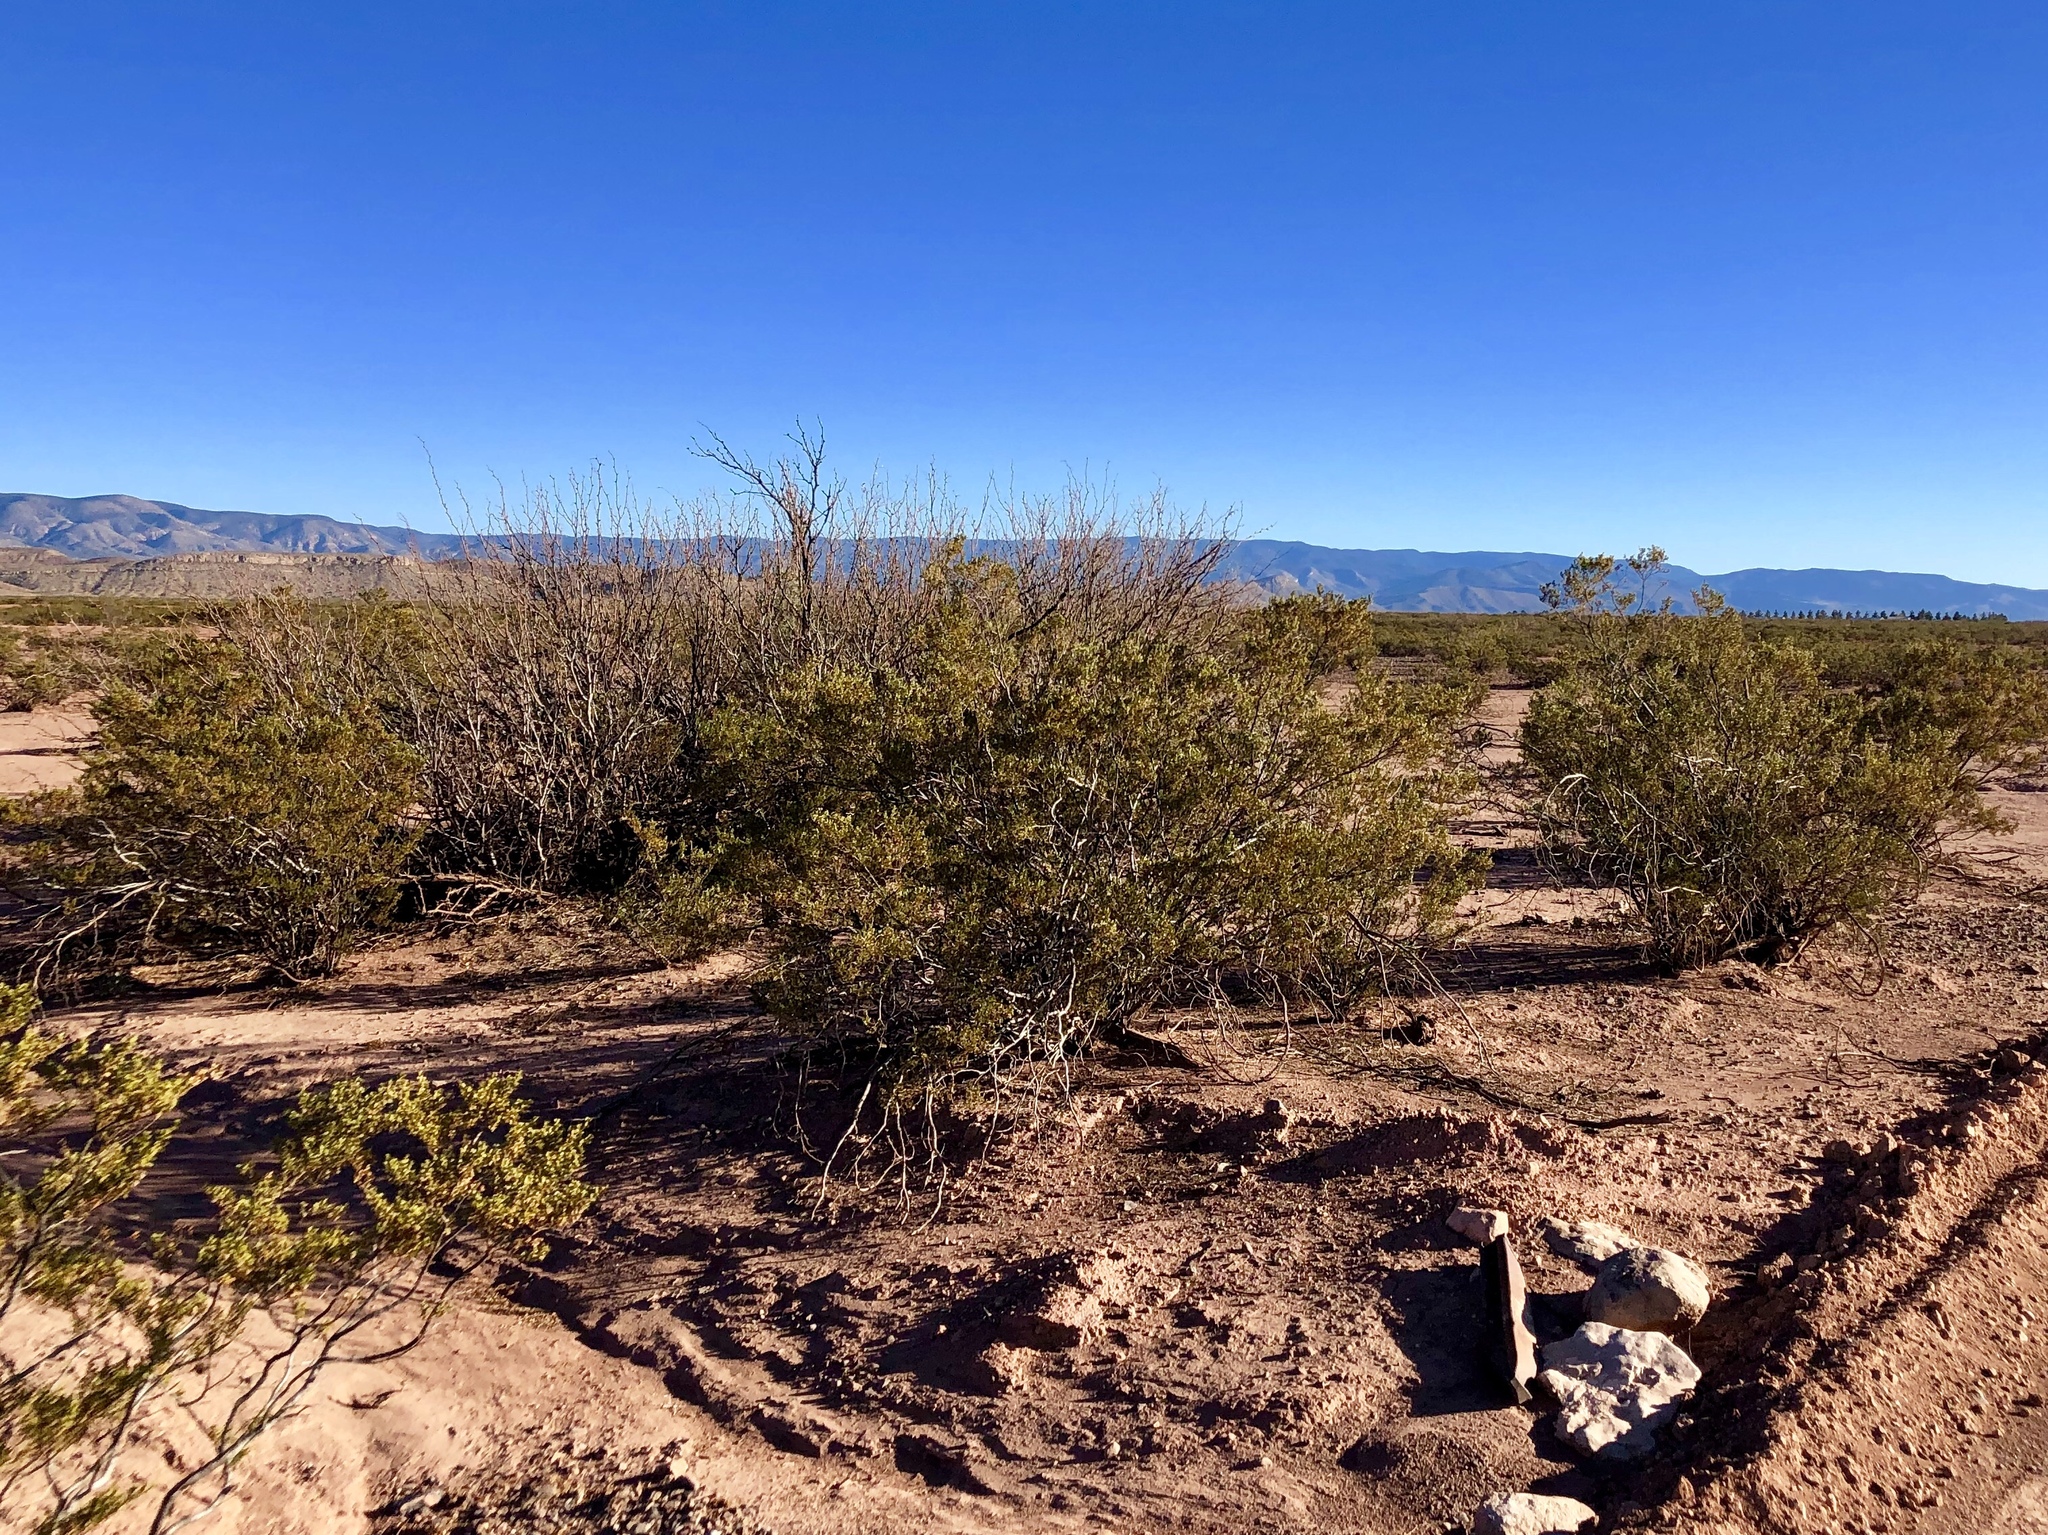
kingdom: Plantae
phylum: Tracheophyta
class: Magnoliopsida
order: Zygophyllales
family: Zygophyllaceae
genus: Larrea
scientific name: Larrea tridentata
